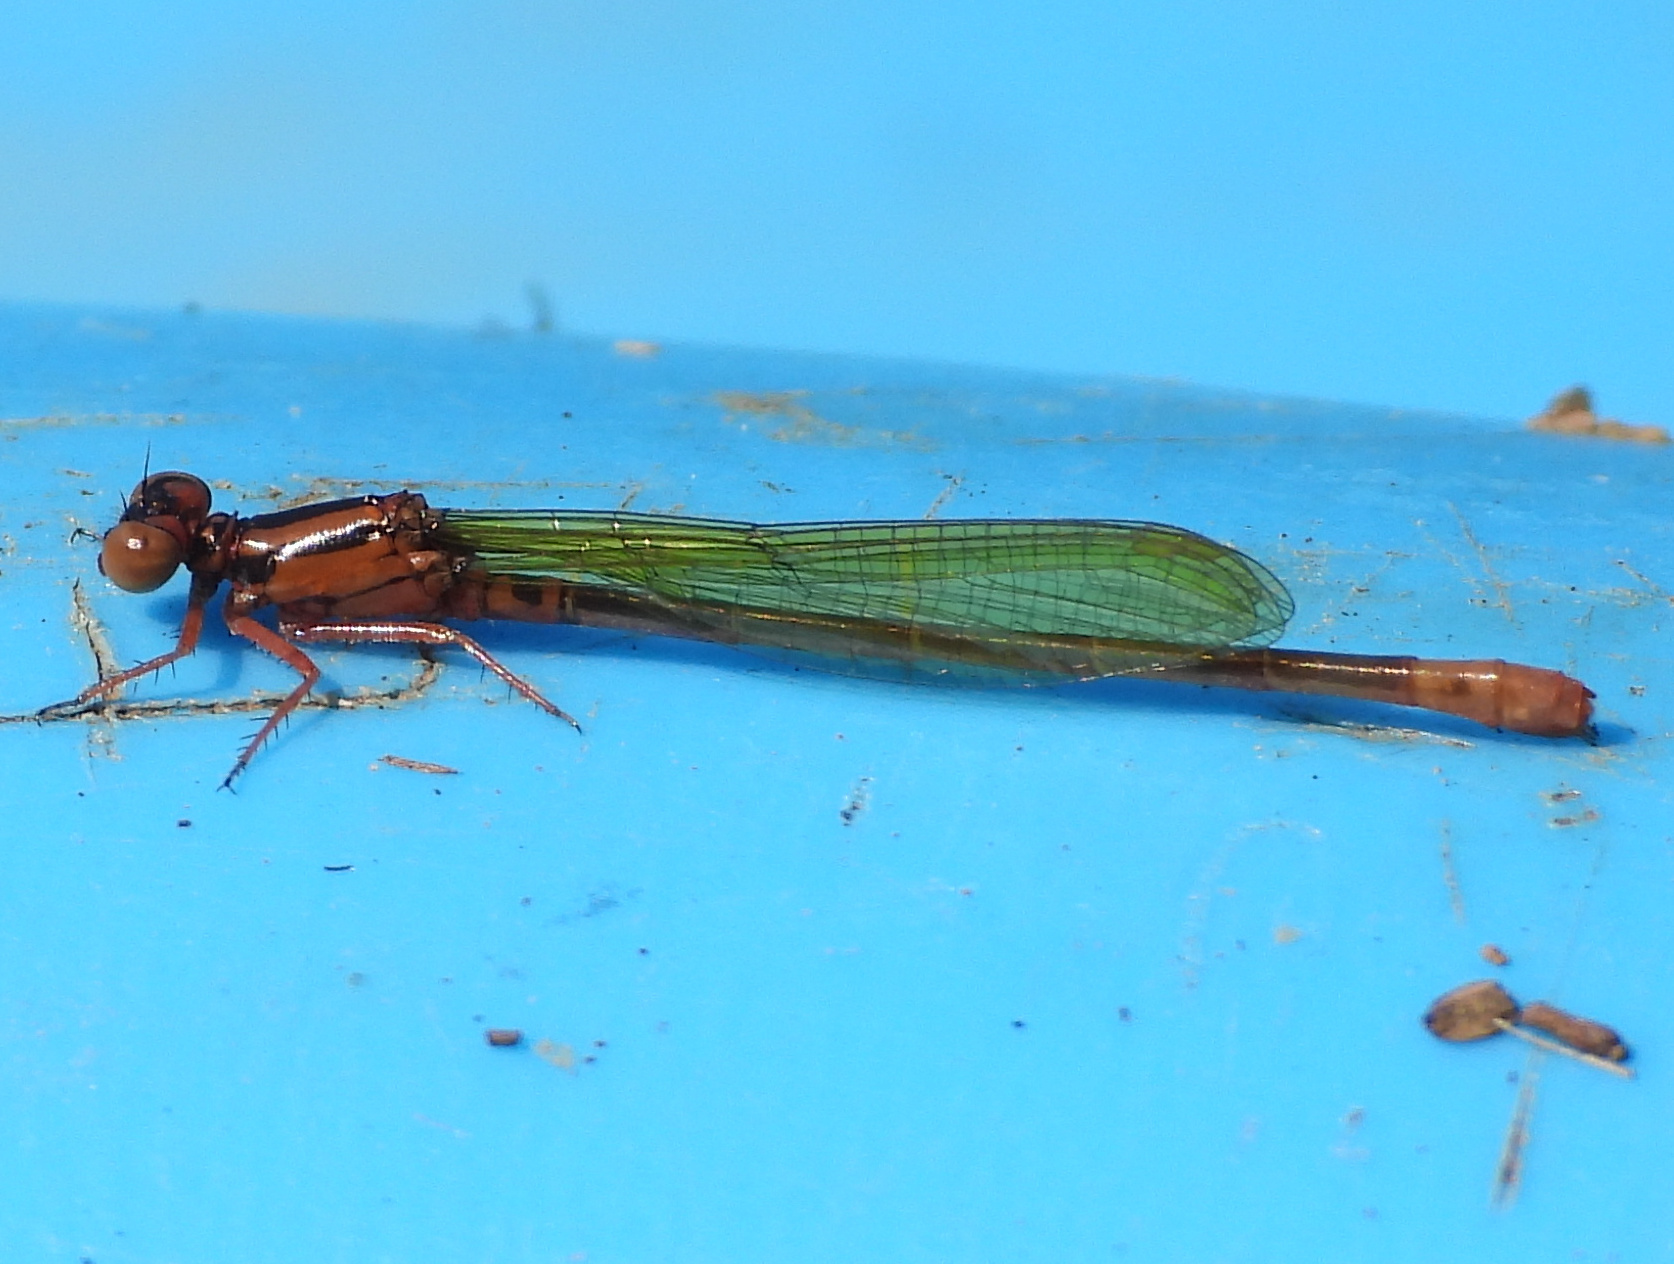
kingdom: Animalia
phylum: Arthropoda
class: Insecta
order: Odonata
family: Coenagrionidae
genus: Ischnura
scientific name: Ischnura kellicotti
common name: Lilypad forktail
